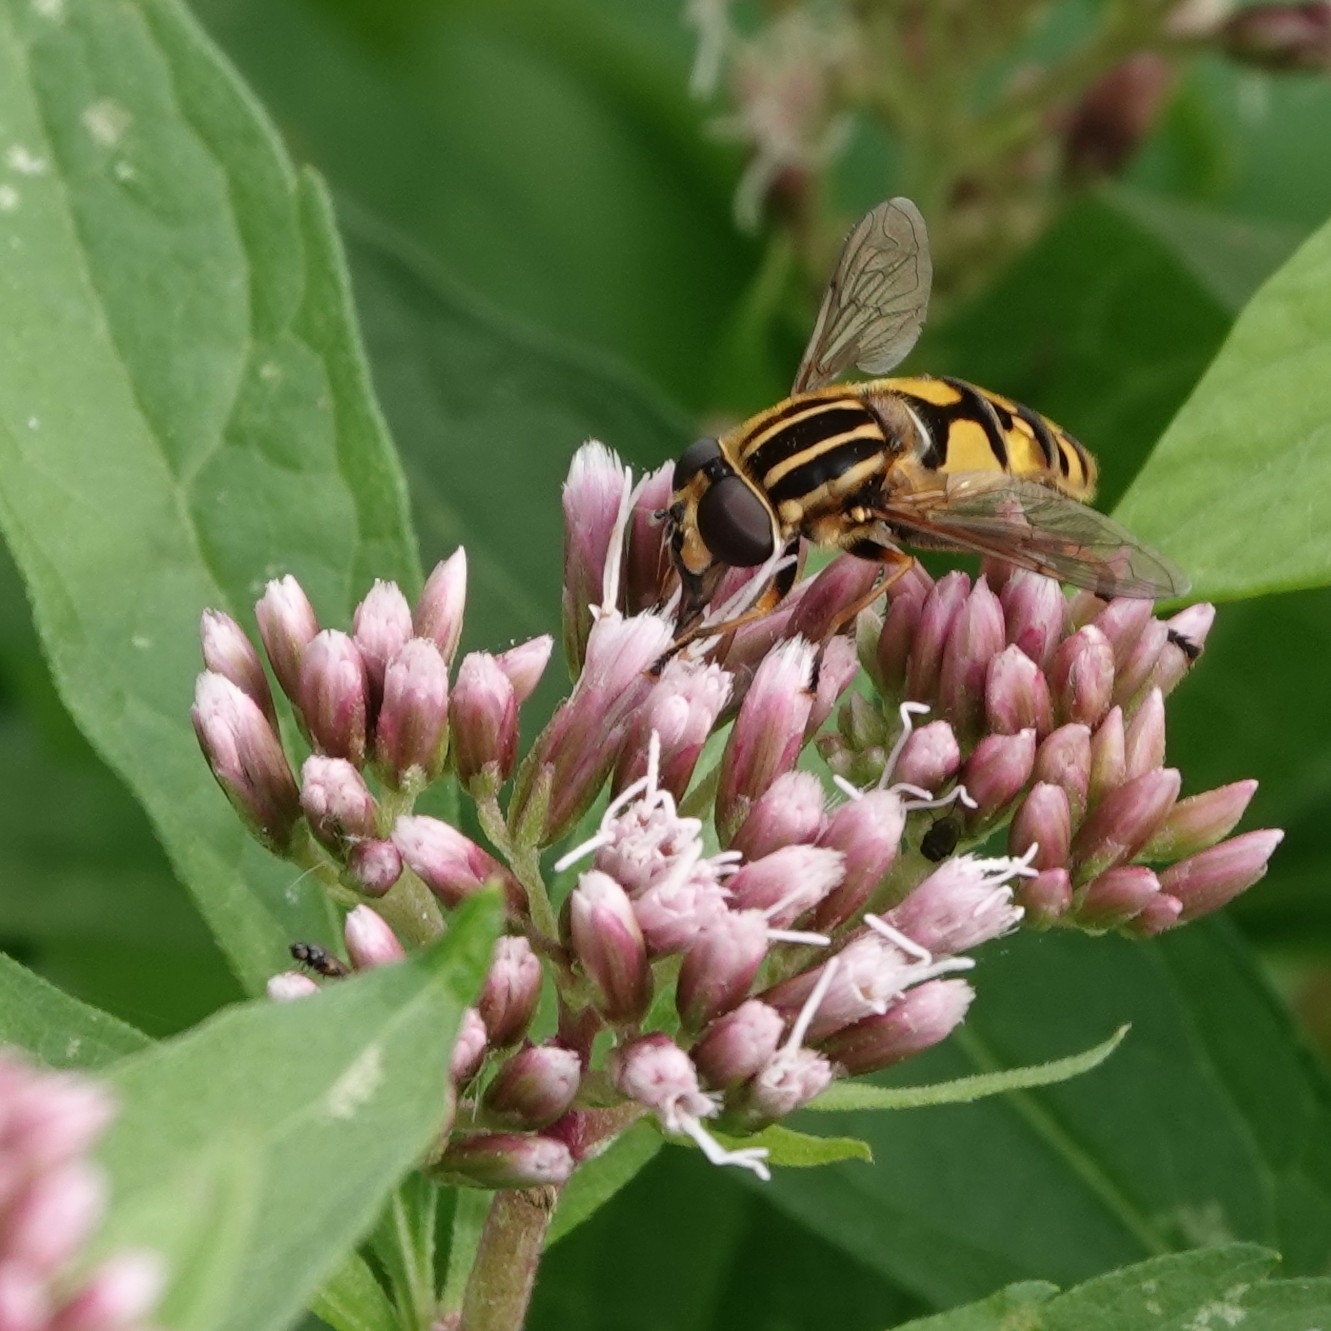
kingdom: Animalia
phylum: Arthropoda
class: Insecta
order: Diptera
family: Syrphidae
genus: Helophilus
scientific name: Helophilus pendulus
